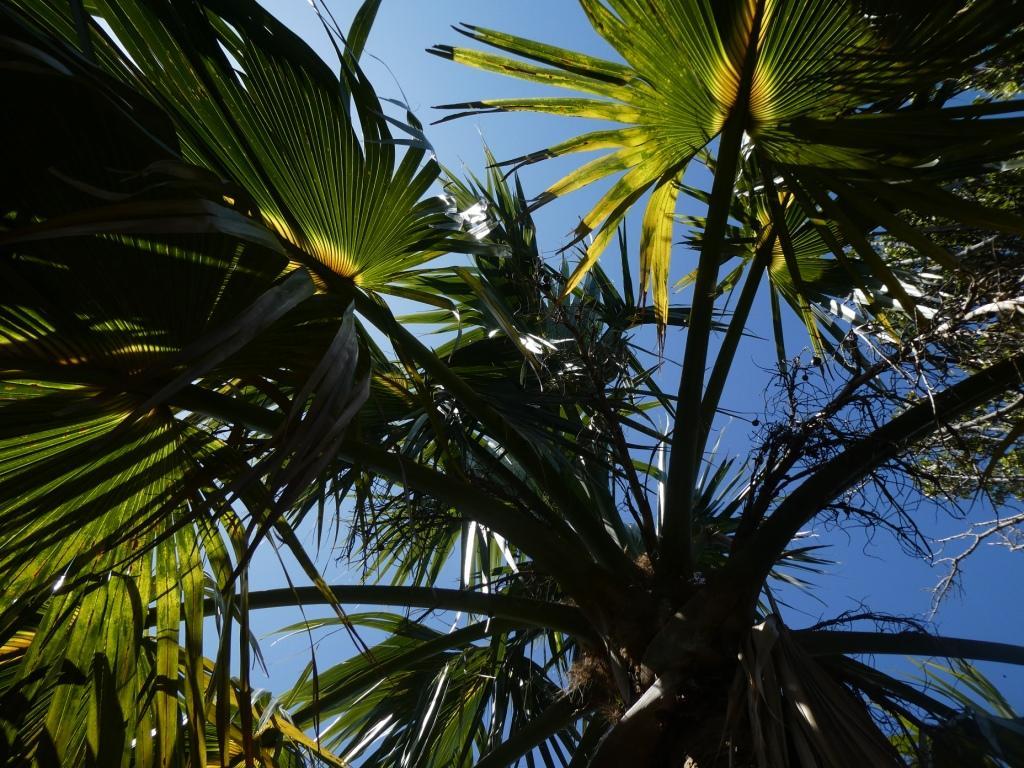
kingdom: Plantae
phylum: Tracheophyta
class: Liliopsida
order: Arecales
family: Arecaceae
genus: Sabal
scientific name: Sabal bermudana
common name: Bermuda palm
